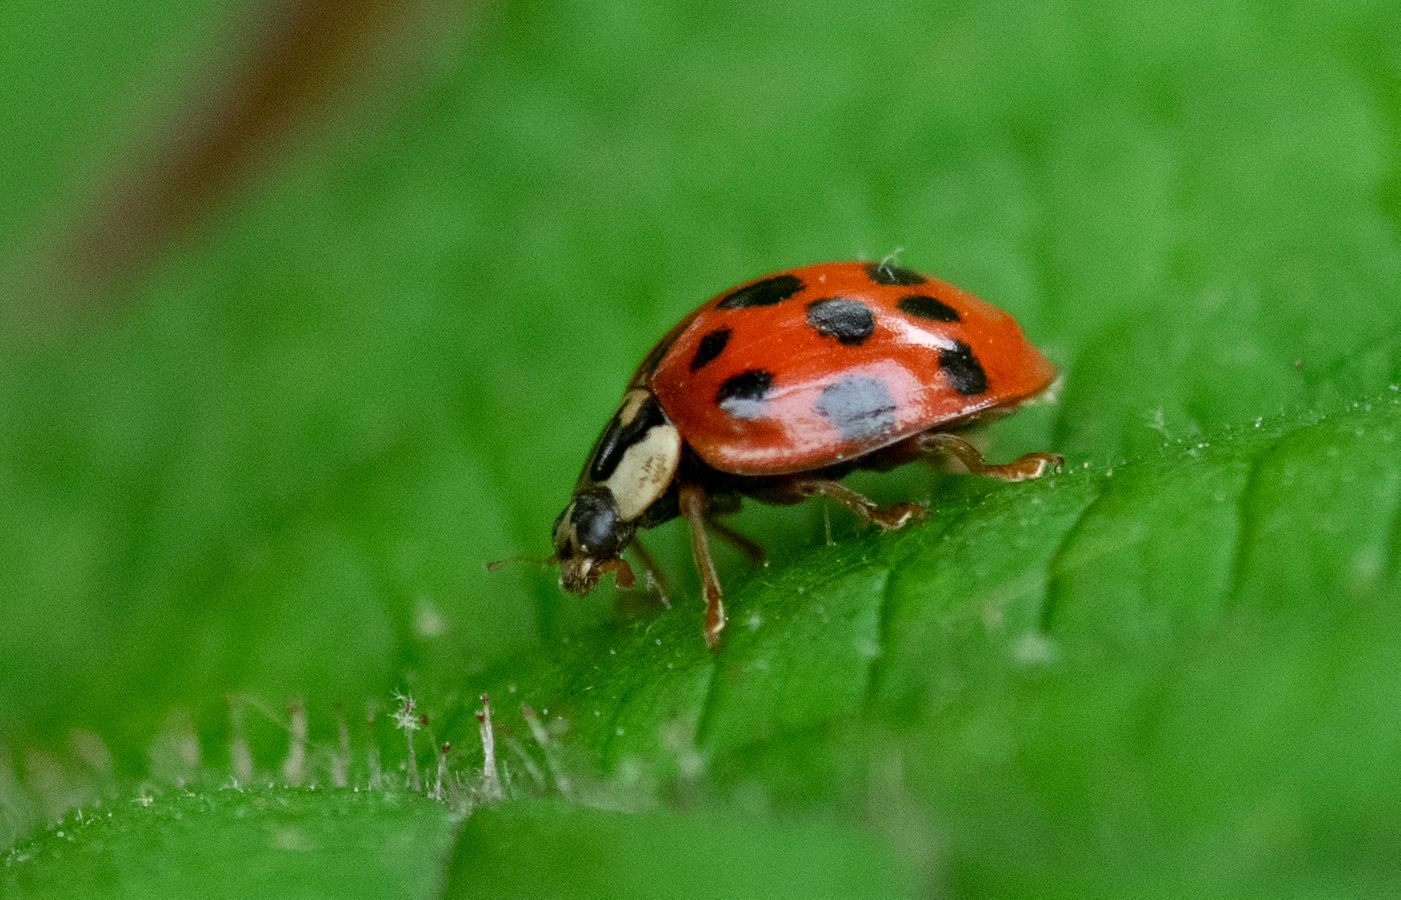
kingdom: Animalia
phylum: Arthropoda
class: Insecta
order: Coleoptera
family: Coccinellidae
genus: Harmonia
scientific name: Harmonia axyridis
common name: Harlequin ladybird
